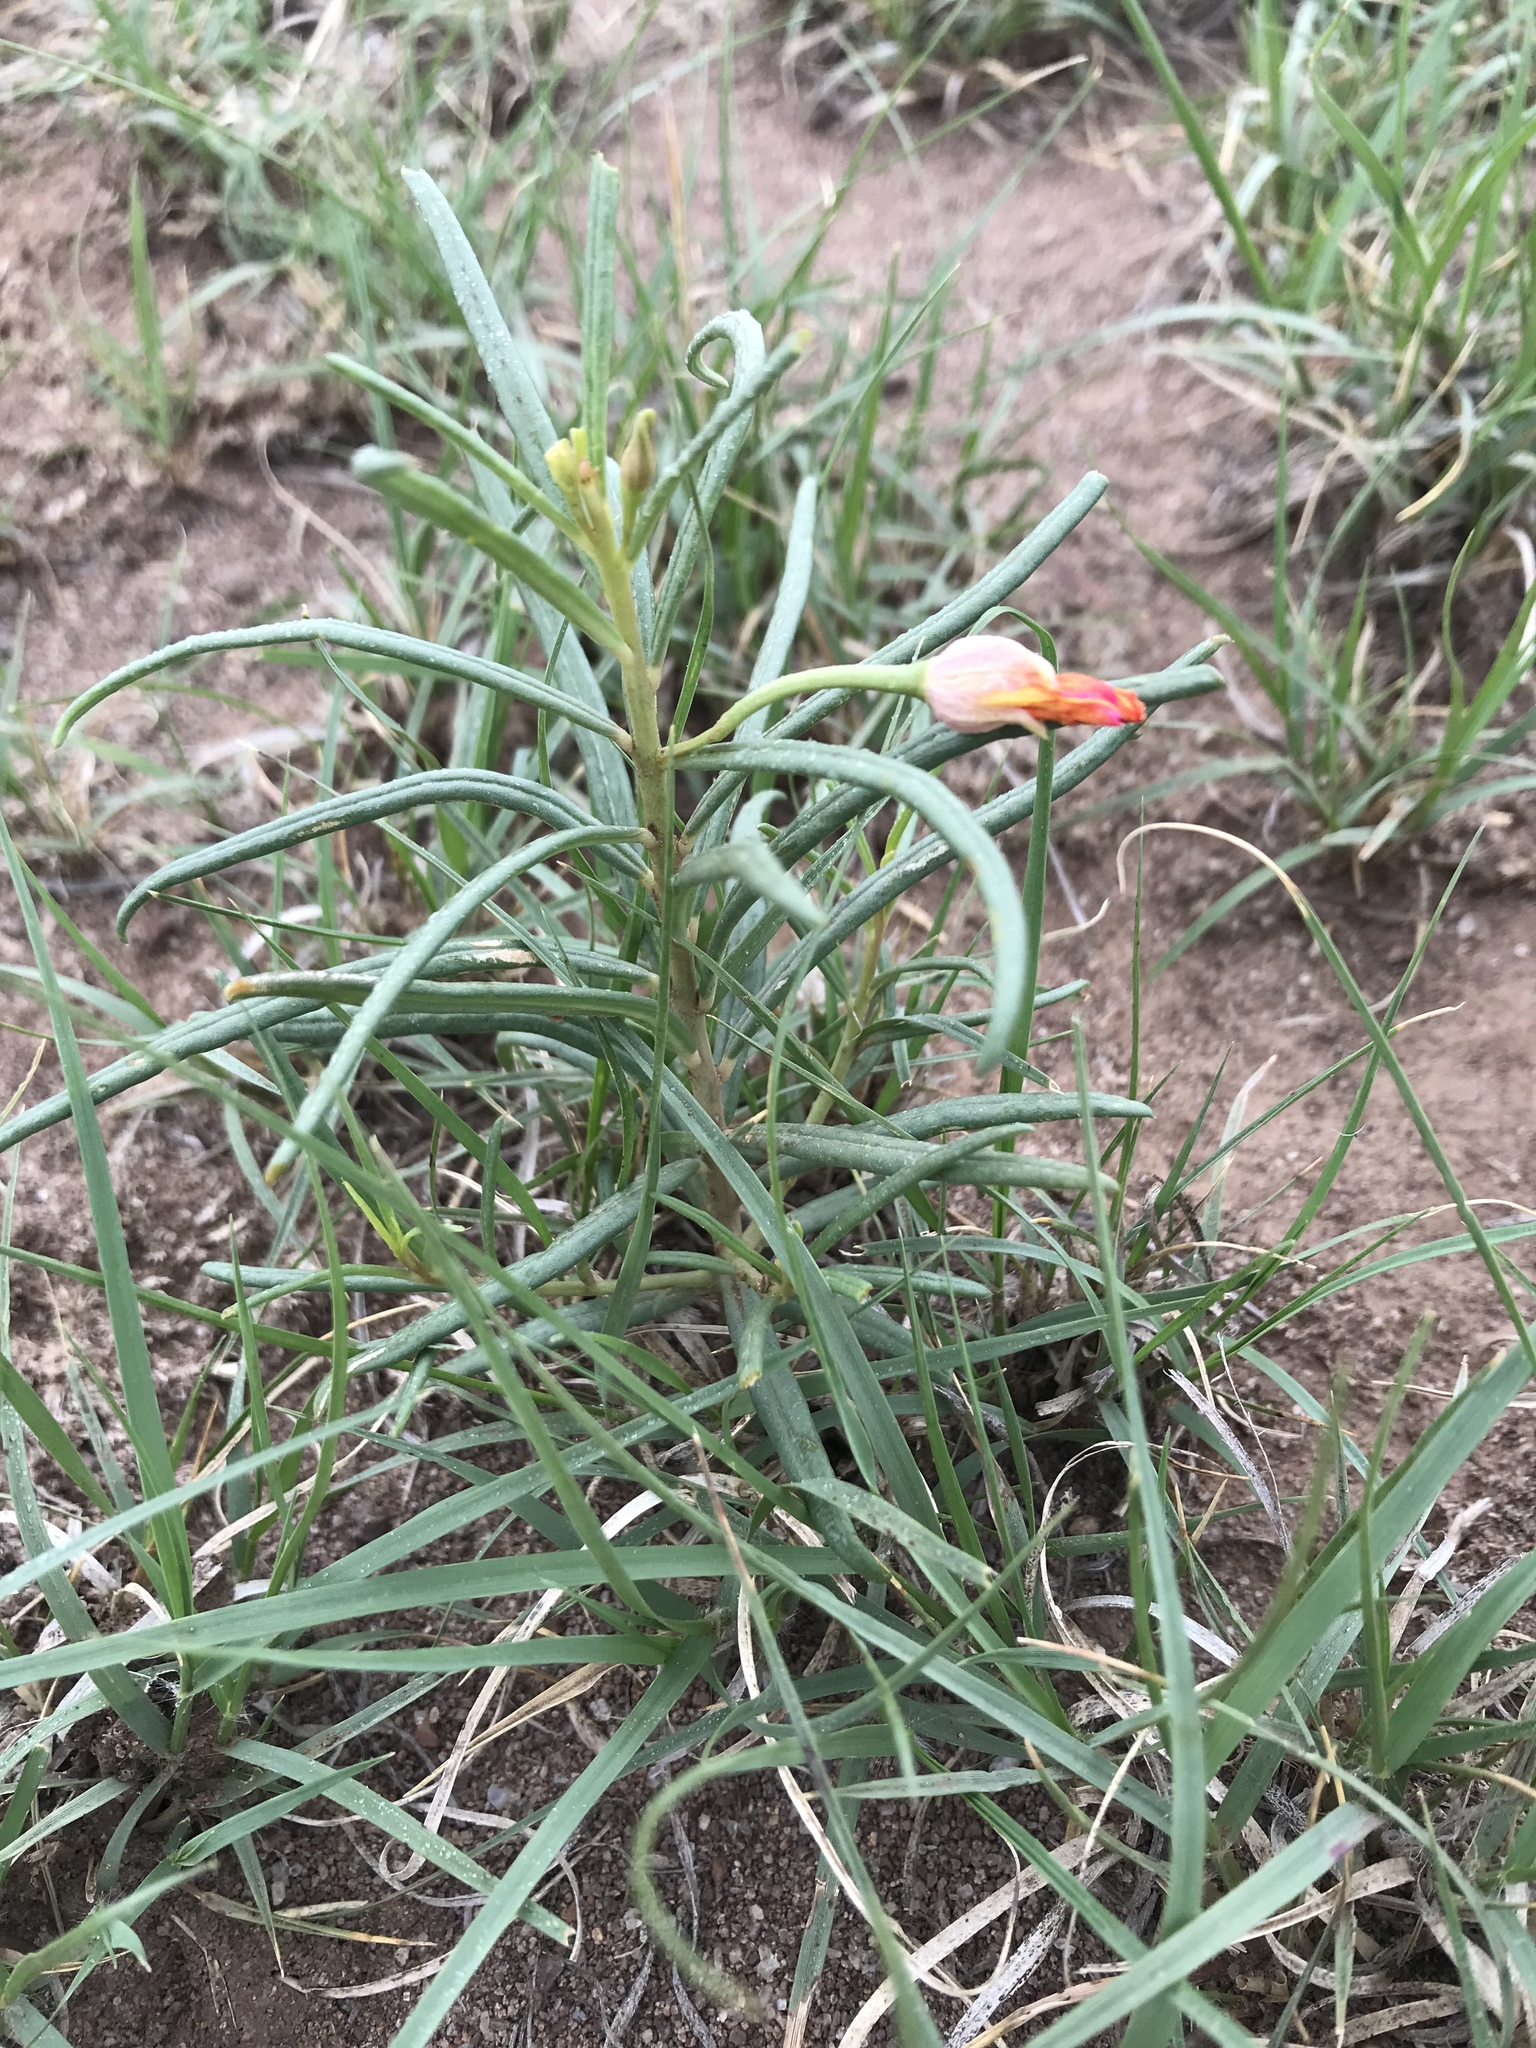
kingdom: Plantae
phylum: Tracheophyta
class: Magnoliopsida
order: Caryophyllales
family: Talinaceae
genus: Talinum
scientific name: Talinum lineare
